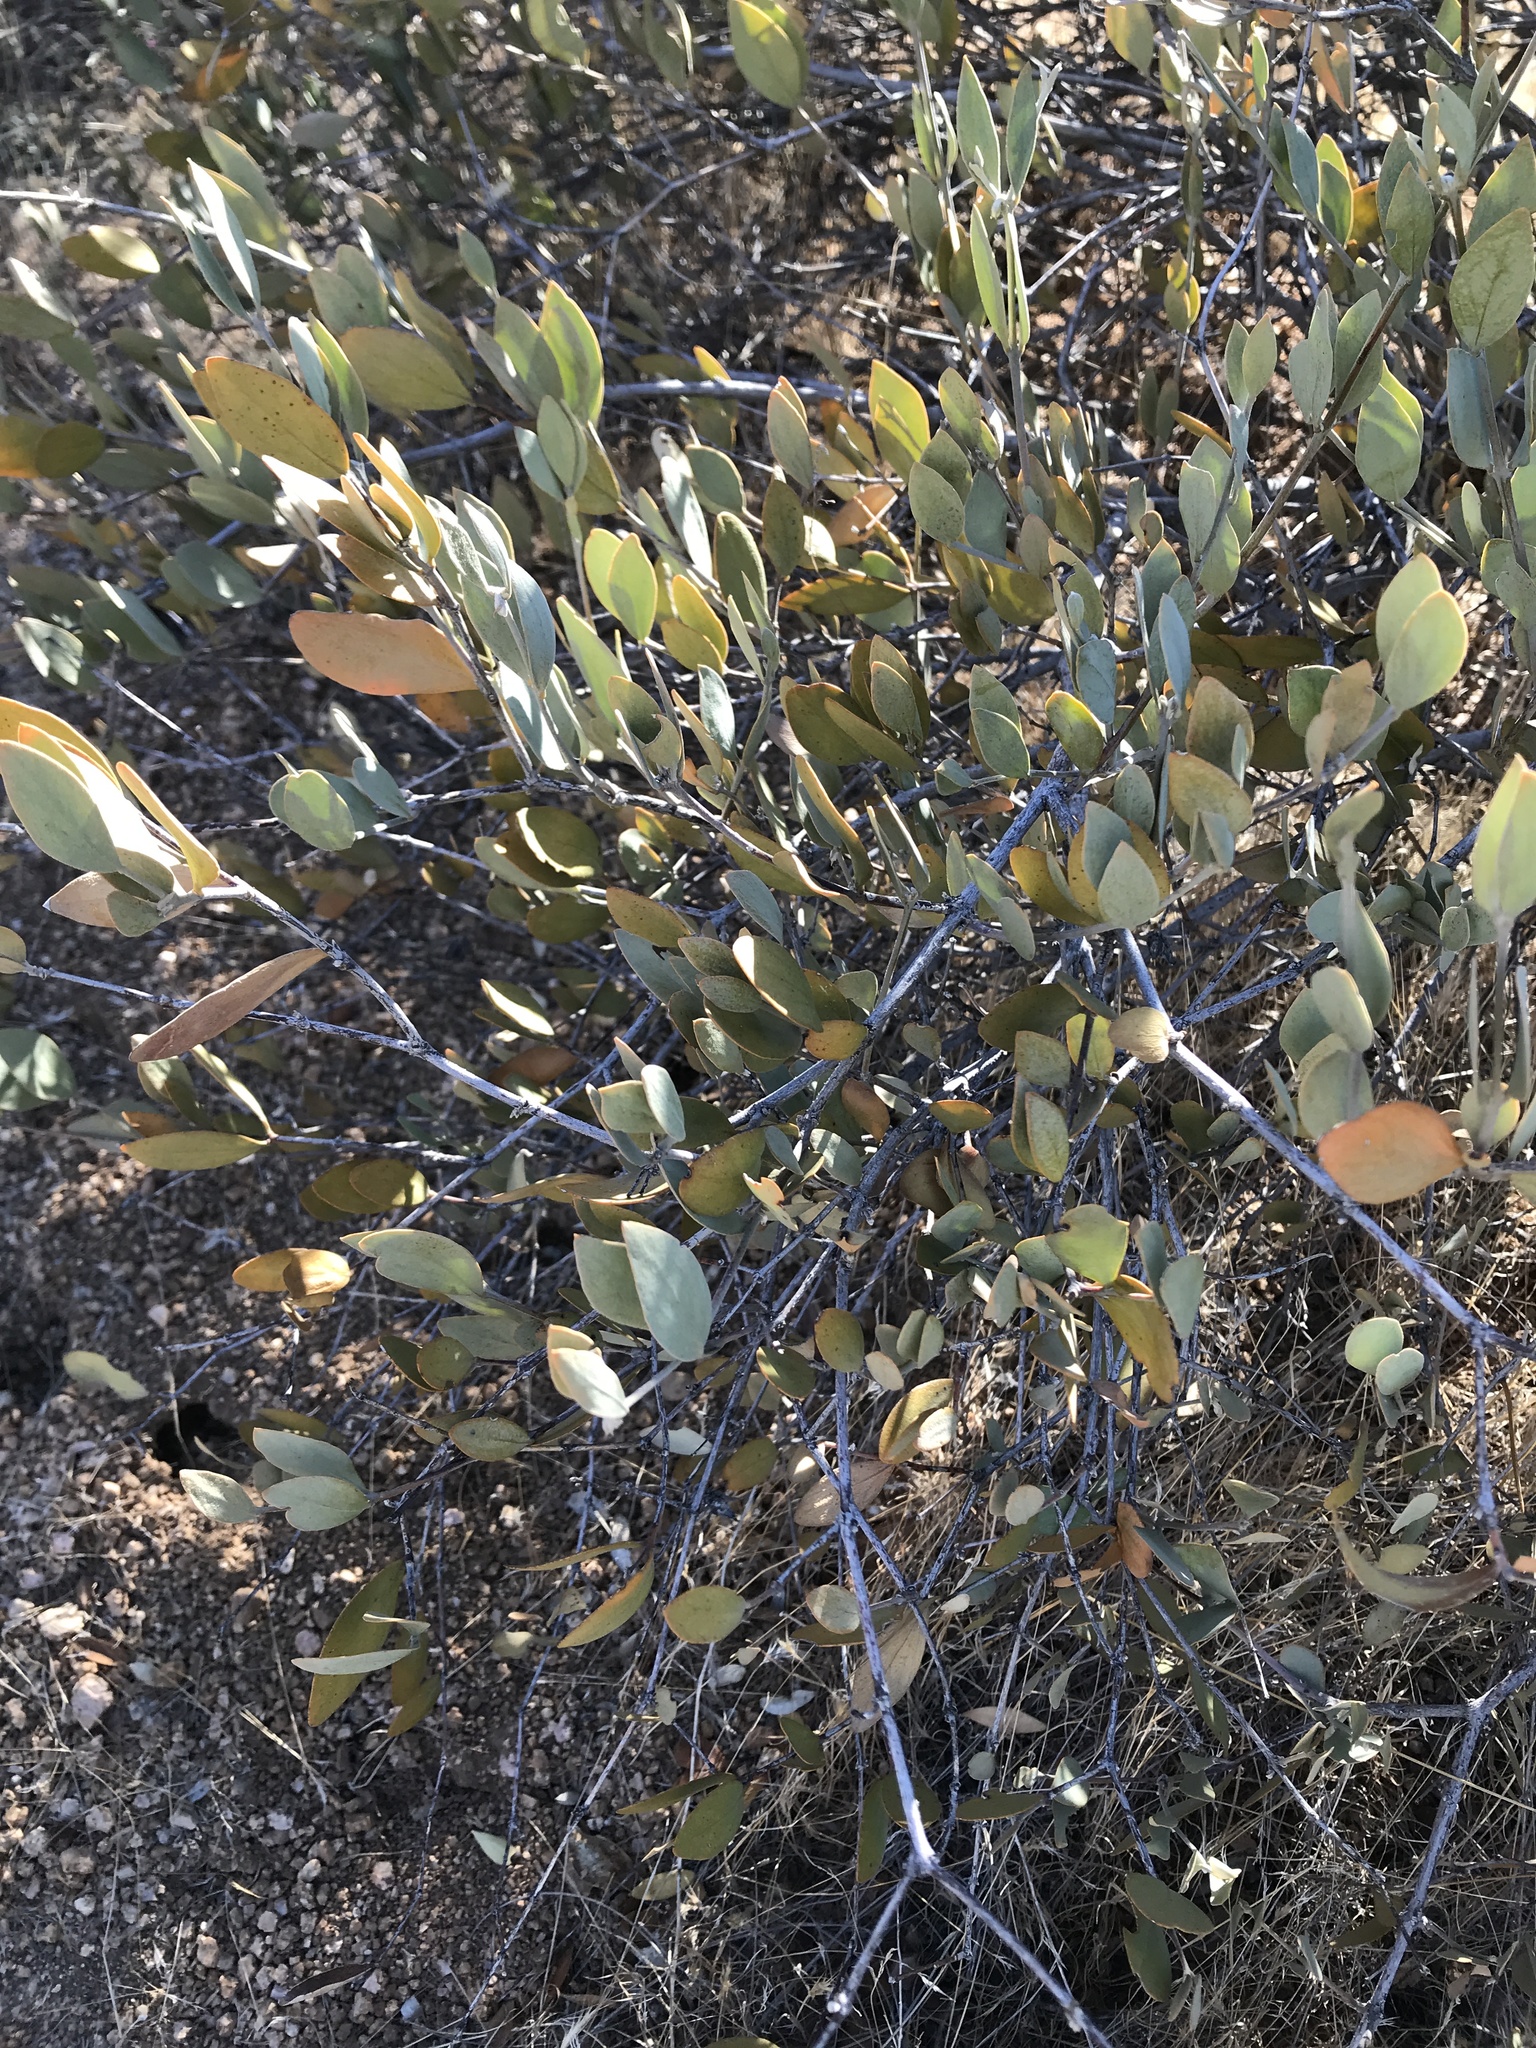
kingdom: Plantae
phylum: Tracheophyta
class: Magnoliopsida
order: Caryophyllales
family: Simmondsiaceae
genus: Simmondsia
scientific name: Simmondsia chinensis
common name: Jojoba
